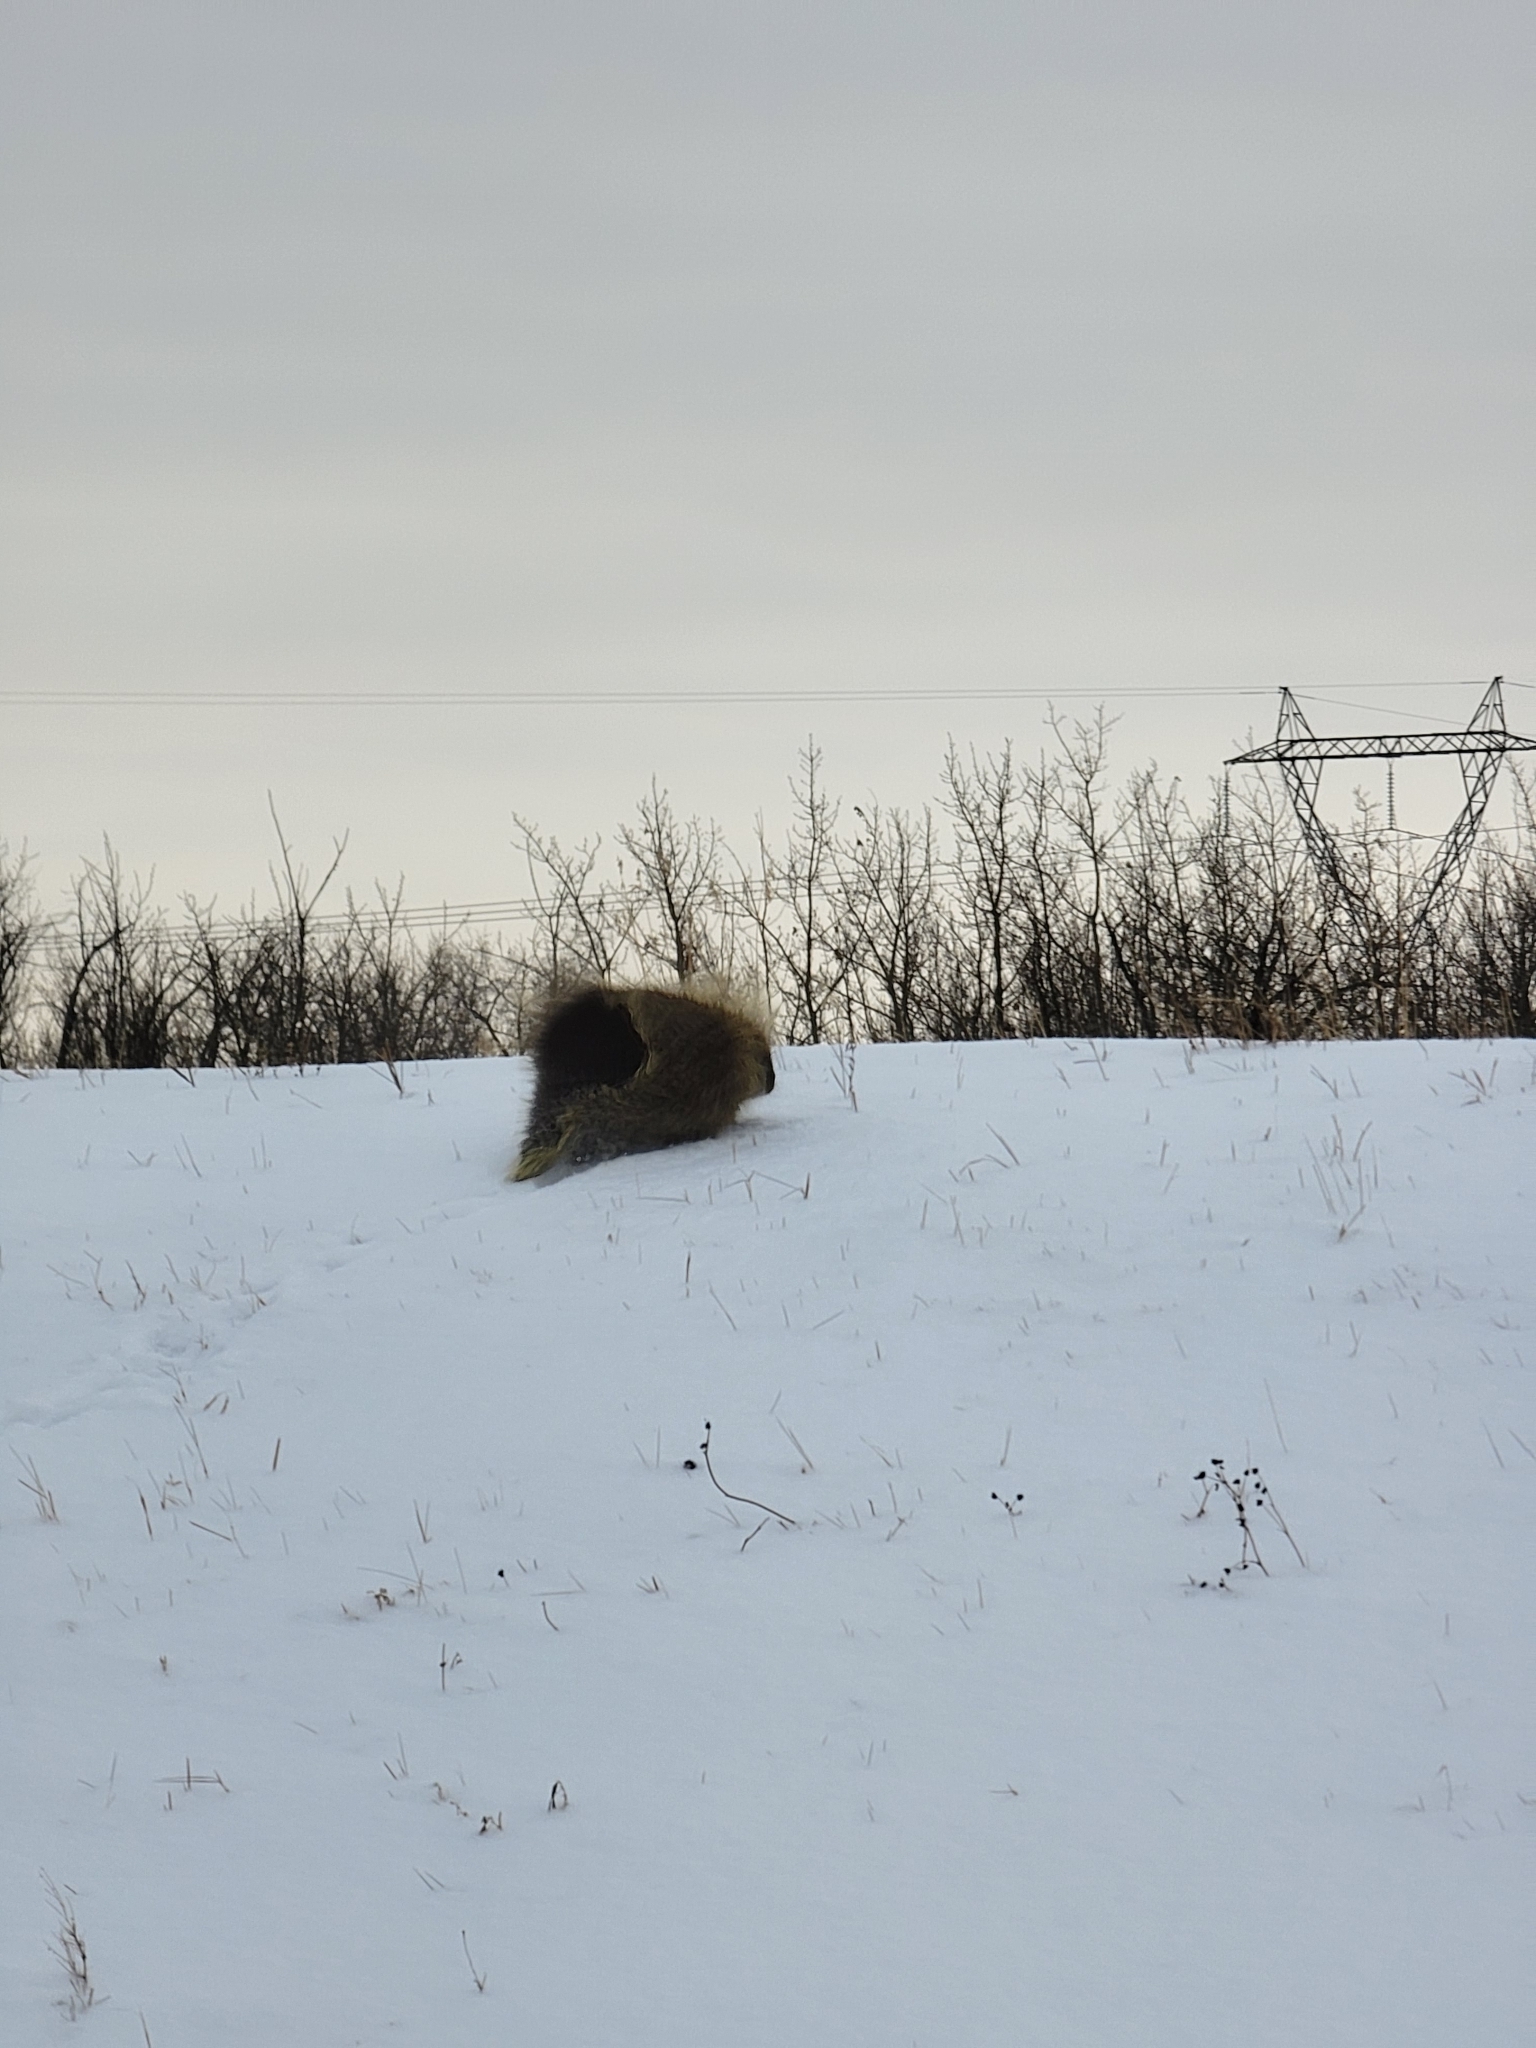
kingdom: Animalia
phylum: Chordata
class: Mammalia
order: Rodentia
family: Erethizontidae
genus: Erethizon
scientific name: Erethizon dorsatus
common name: North american porcupine
